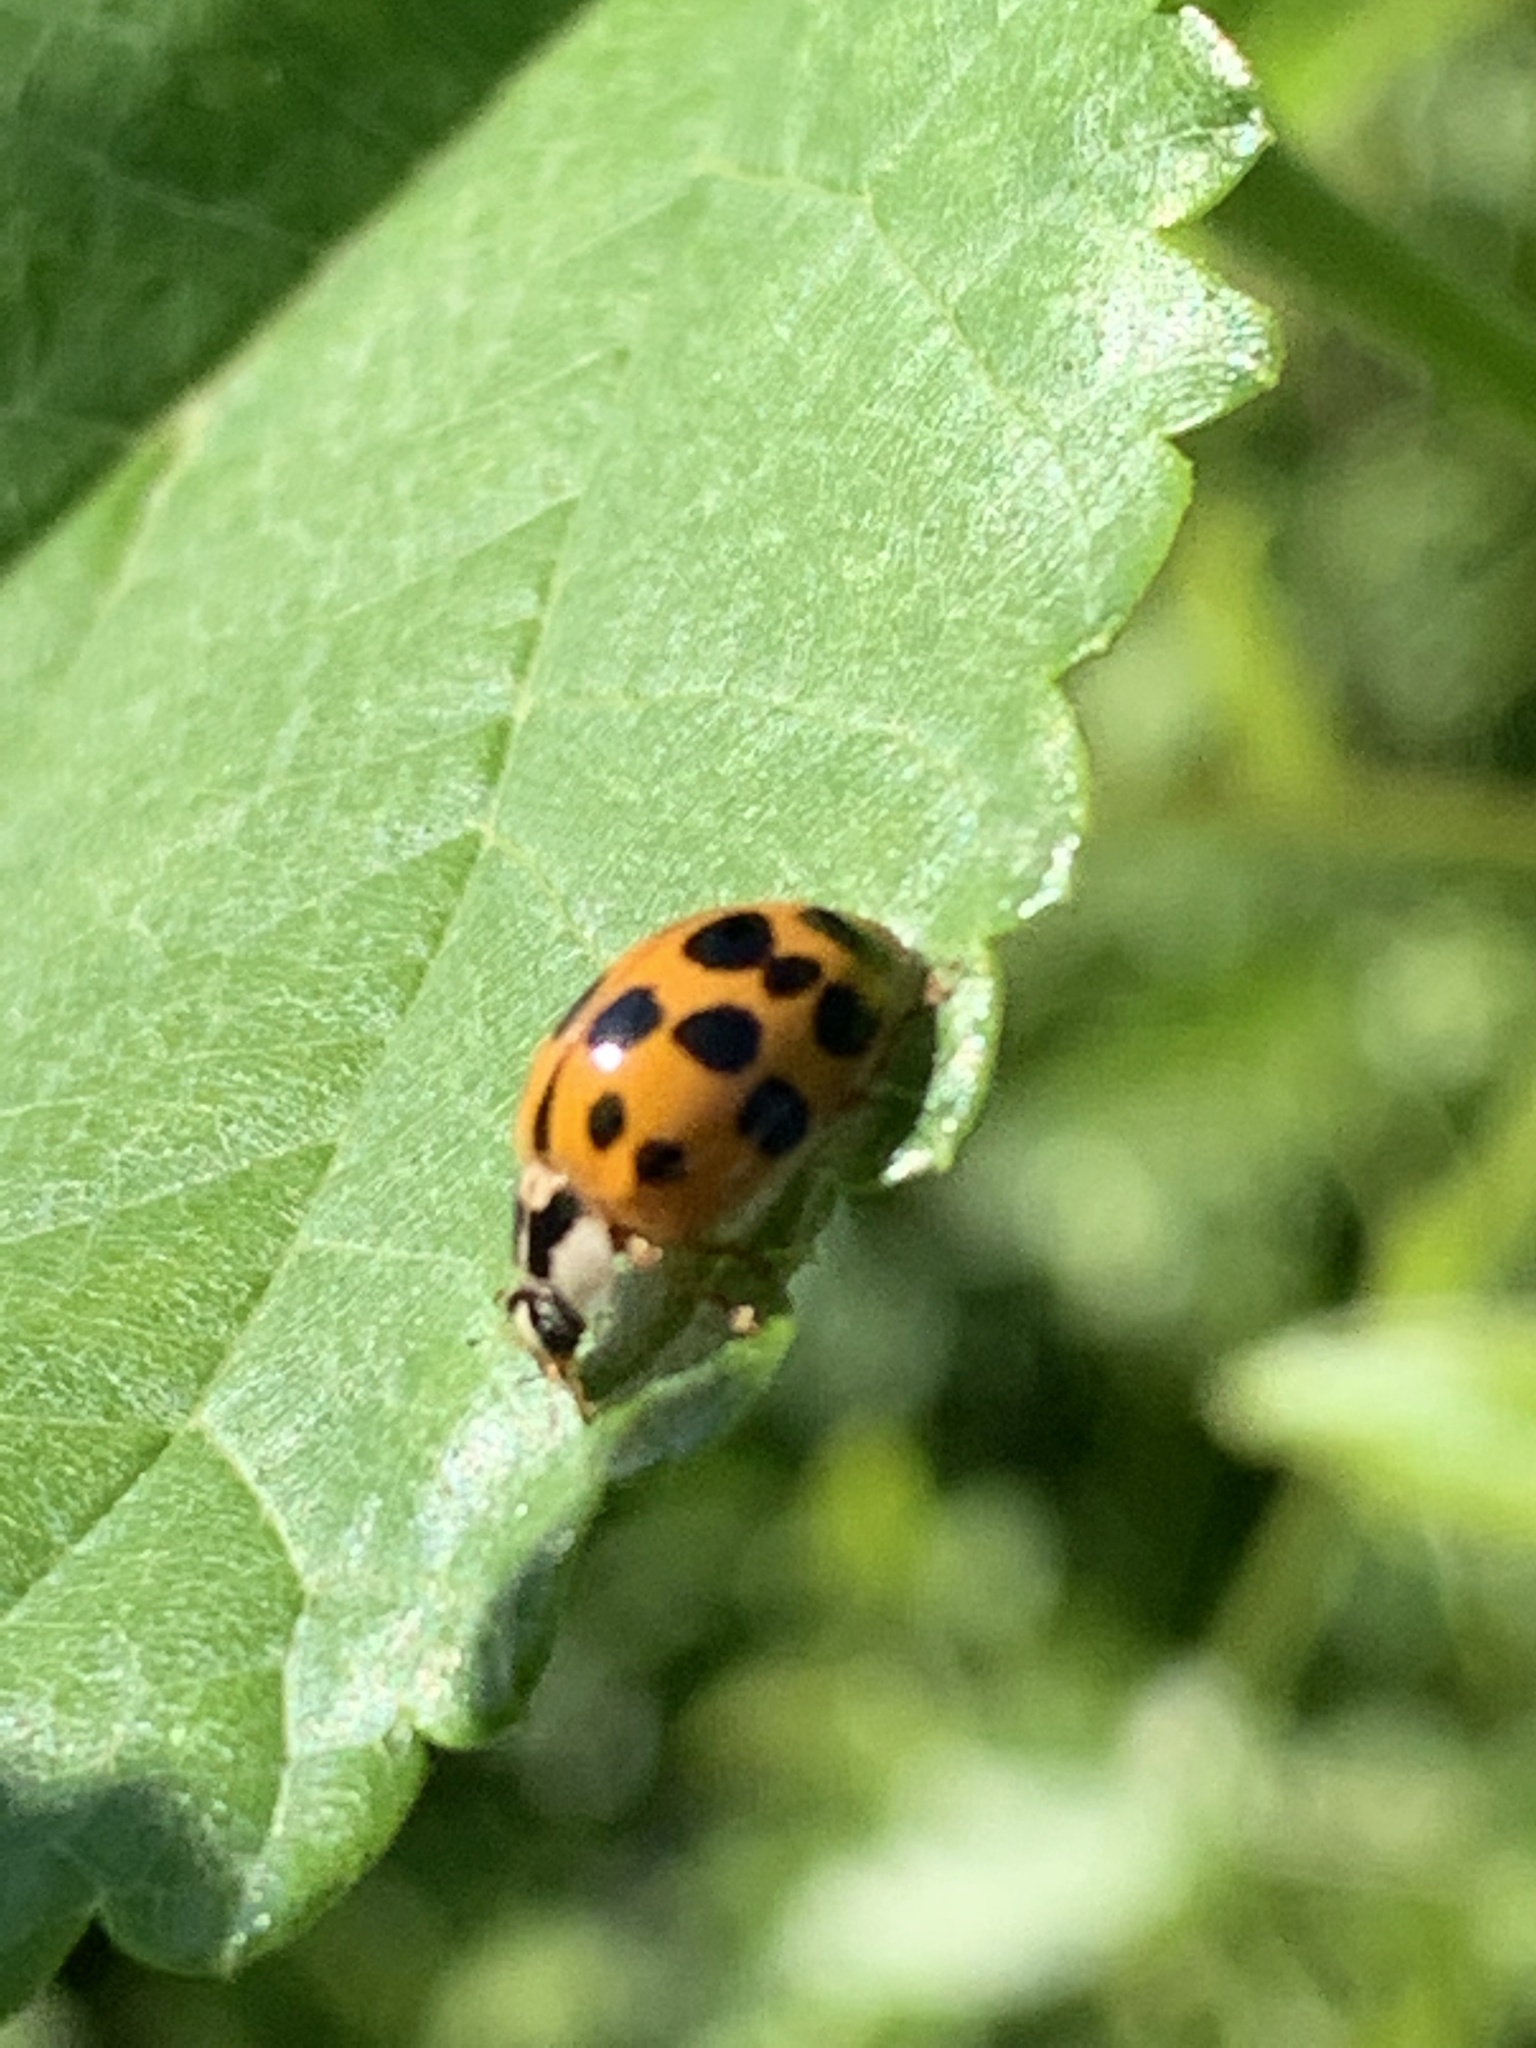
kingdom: Animalia
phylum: Arthropoda
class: Insecta
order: Coleoptera
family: Coccinellidae
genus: Harmonia
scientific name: Harmonia axyridis
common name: Harlequin ladybird
